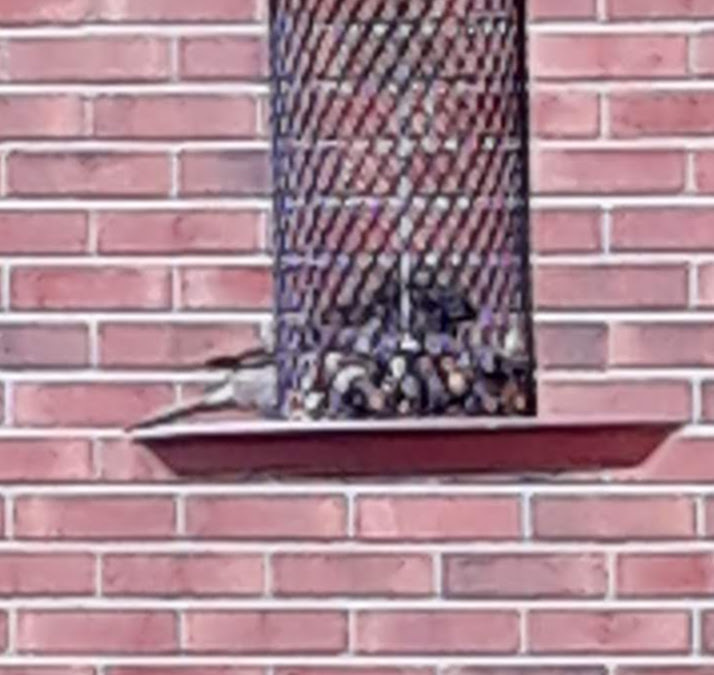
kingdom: Animalia
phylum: Chordata
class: Aves
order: Passeriformes
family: Passeridae
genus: Passer
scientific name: Passer domesticus
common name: House sparrow
